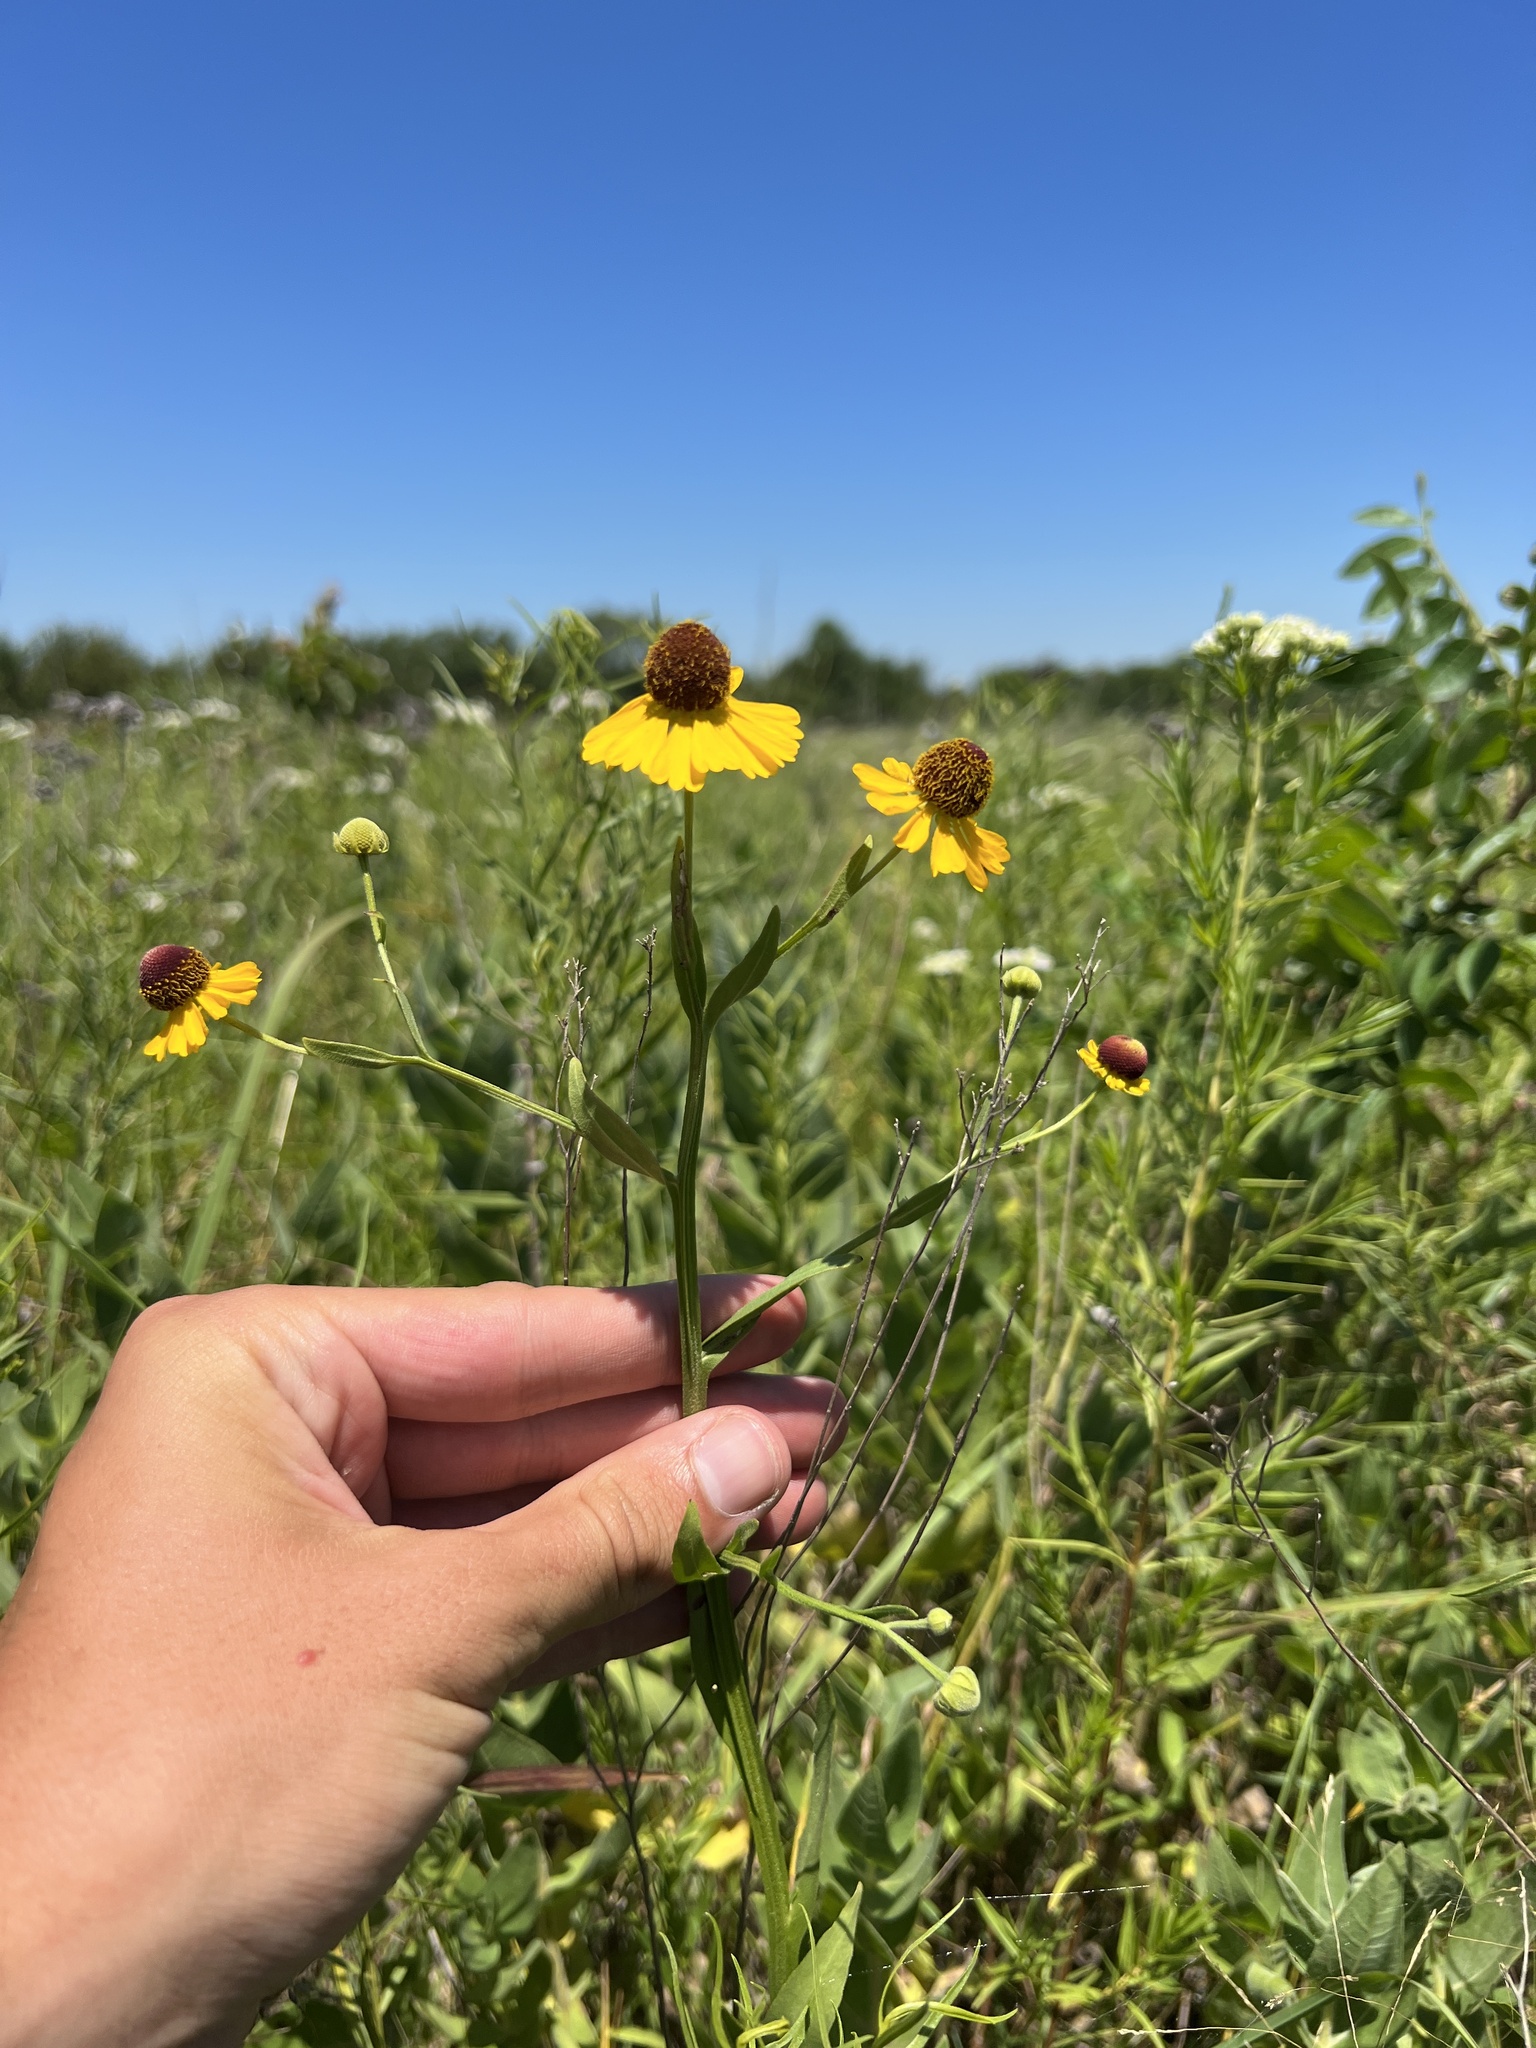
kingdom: Plantae
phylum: Tracheophyta
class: Magnoliopsida
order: Asterales
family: Asteraceae
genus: Helenium
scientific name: Helenium flexuosum
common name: Naked-flowered sneezeweed
